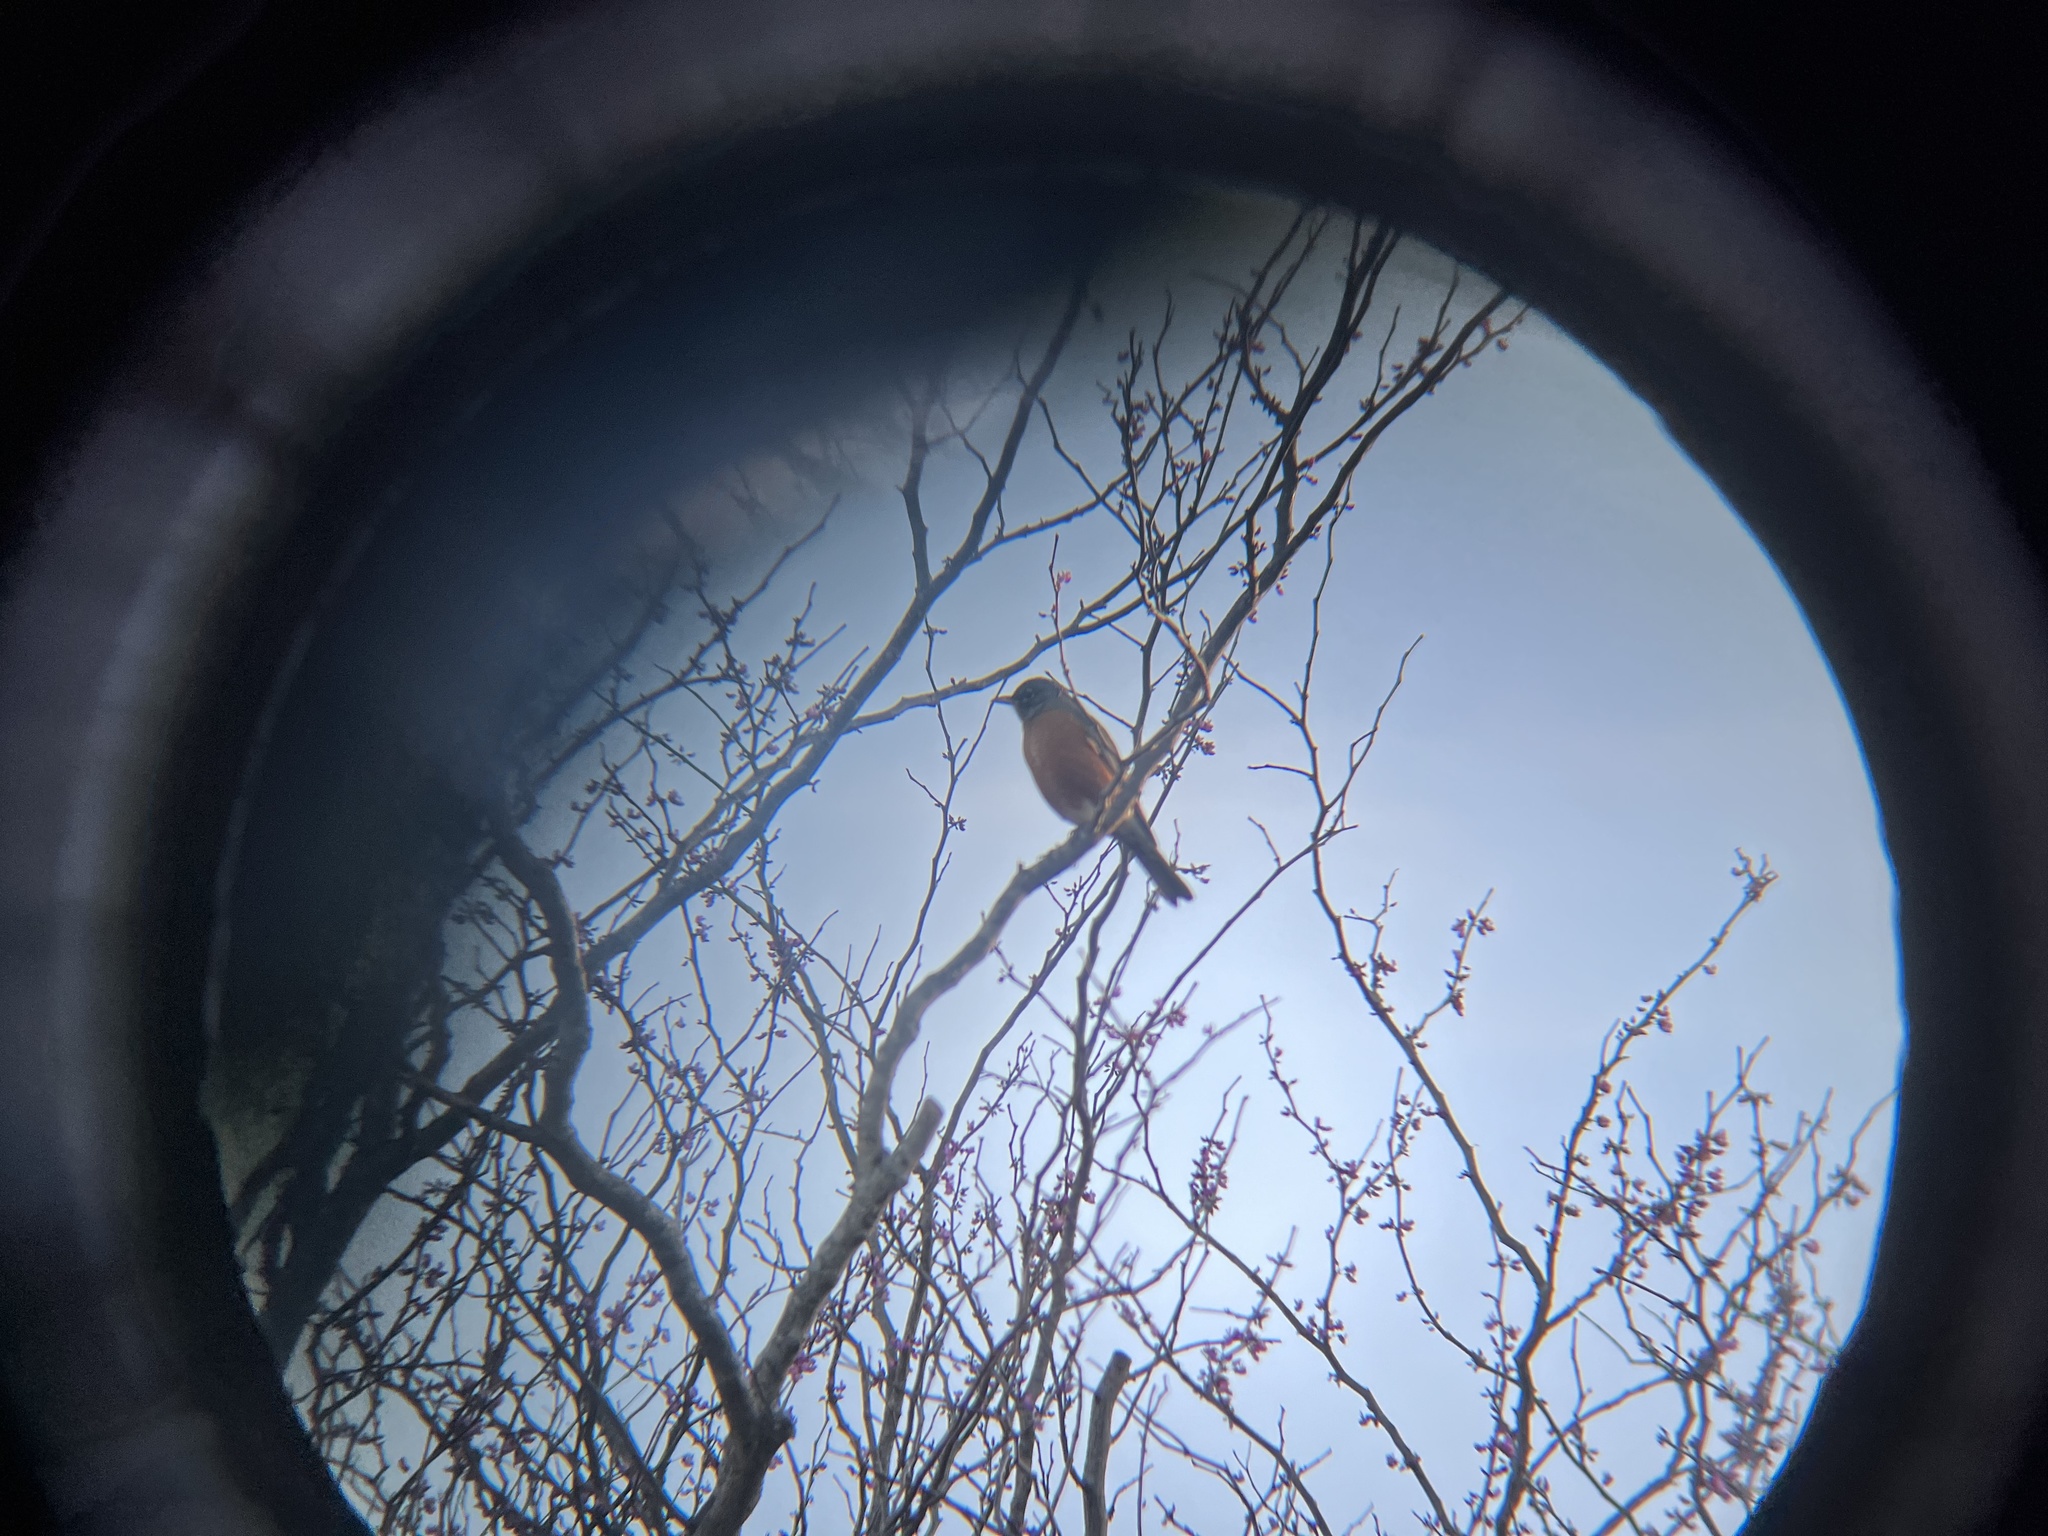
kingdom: Animalia
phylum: Chordata
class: Aves
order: Passeriformes
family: Turdidae
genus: Turdus
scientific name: Turdus migratorius
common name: American robin
